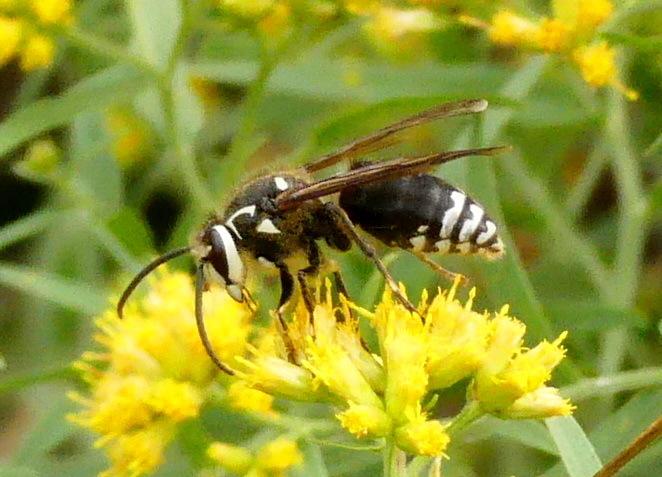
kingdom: Animalia
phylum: Arthropoda
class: Insecta
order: Hymenoptera
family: Vespidae
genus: Dolichovespula
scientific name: Dolichovespula maculata
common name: Bald-faced hornet
